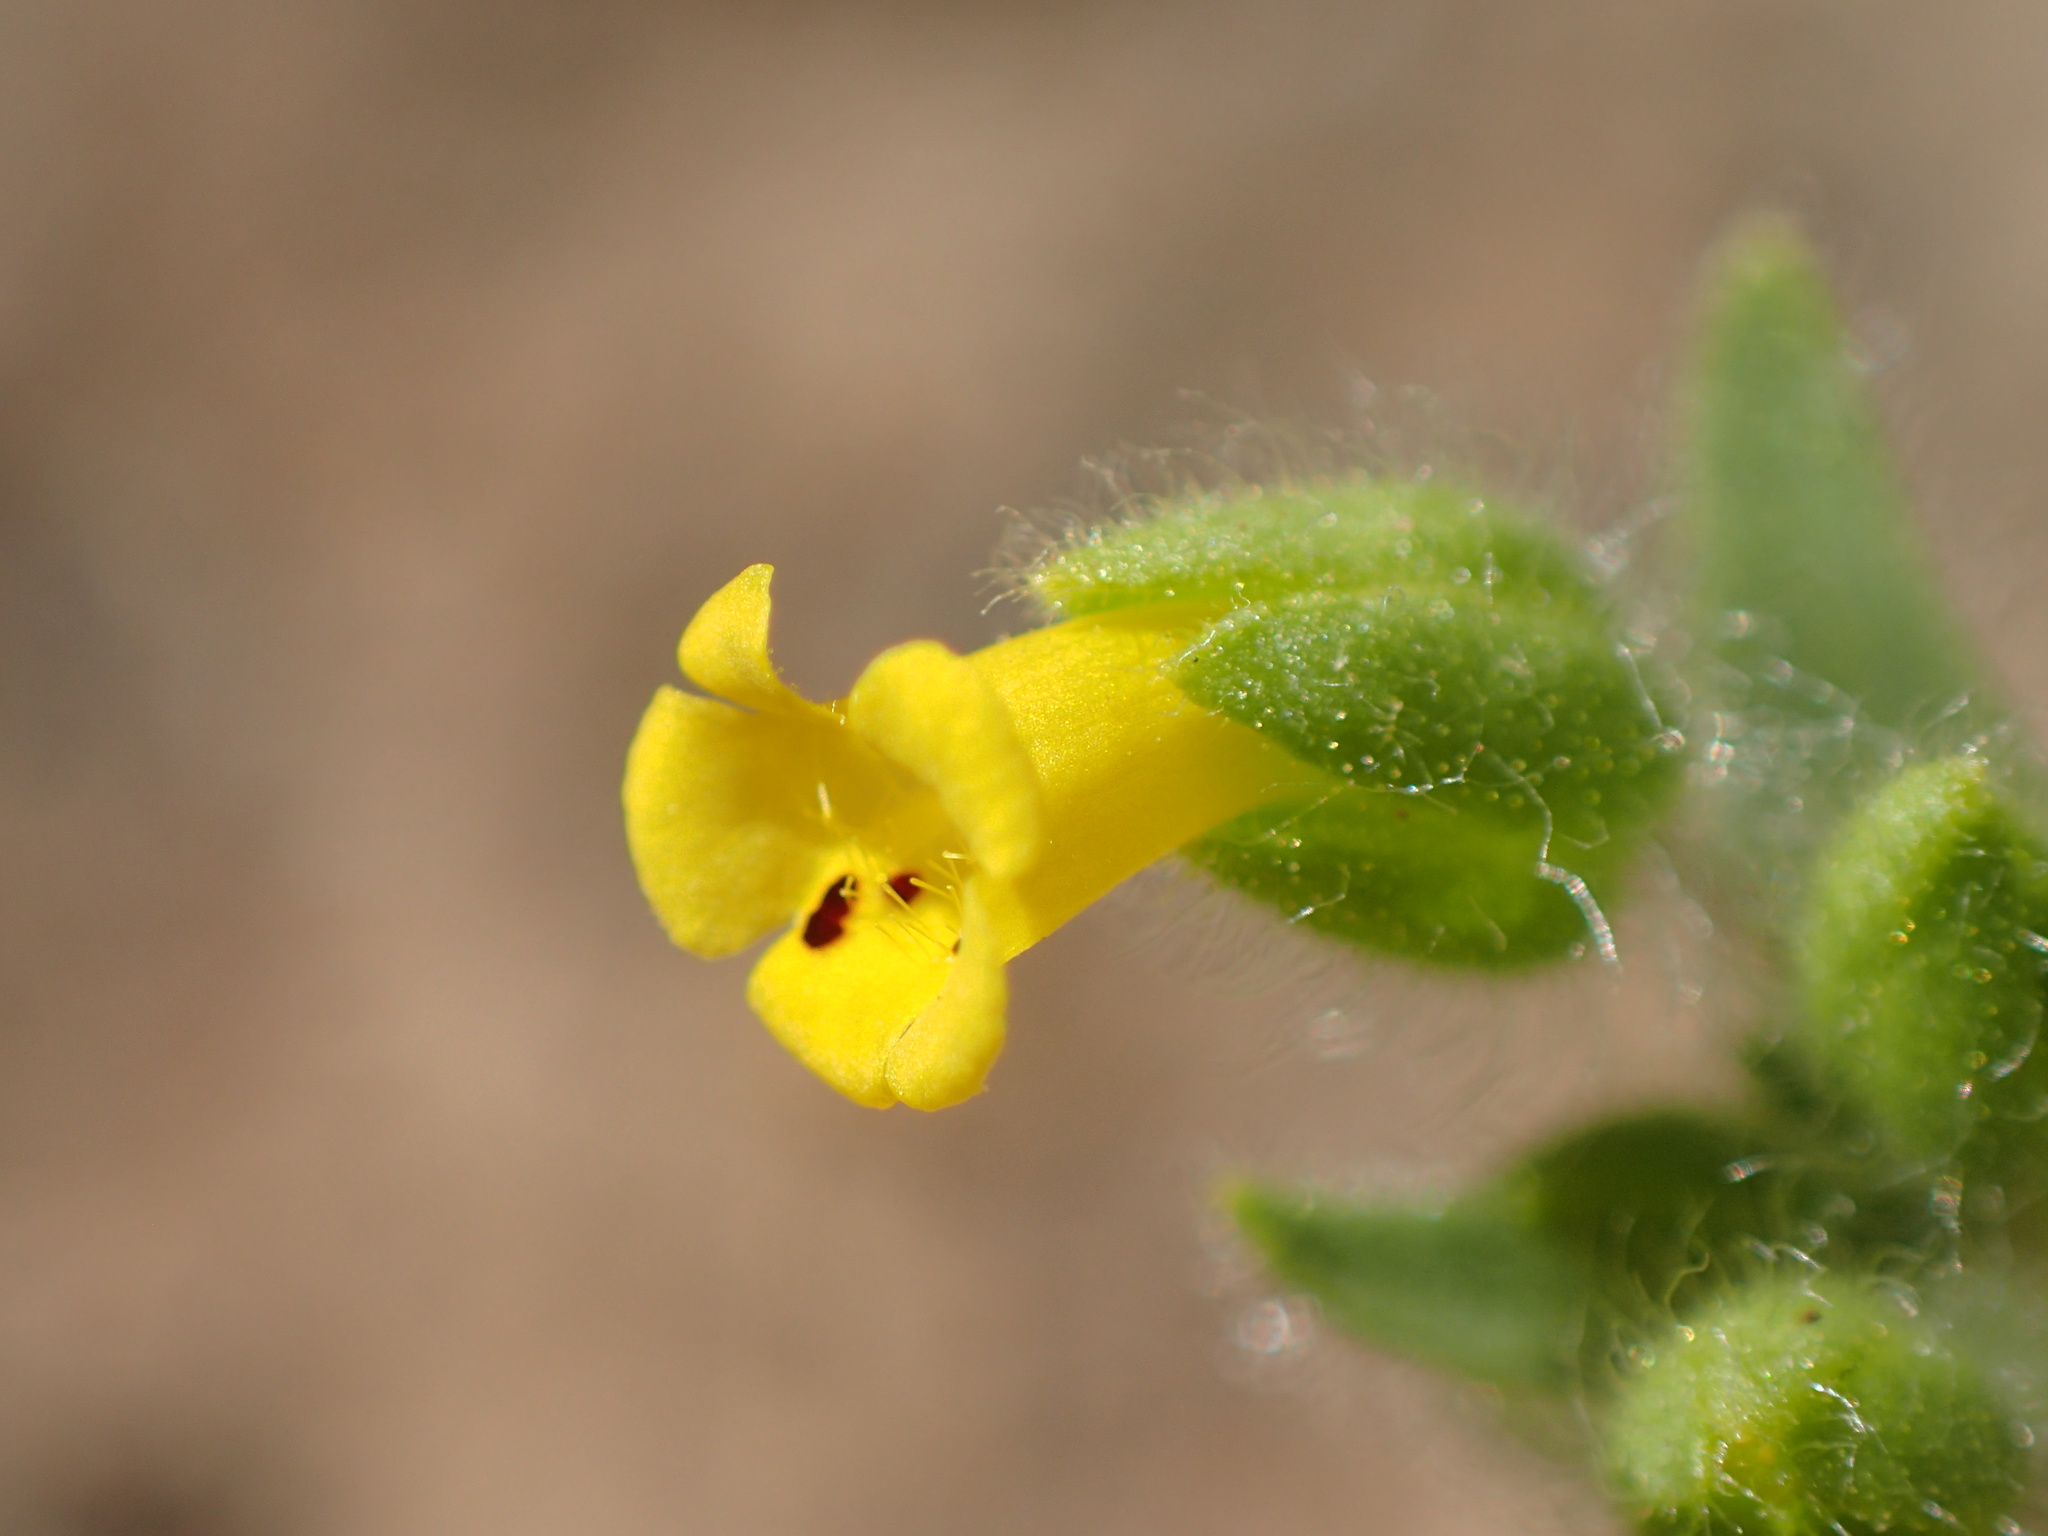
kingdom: Plantae
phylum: Tracheophyta
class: Magnoliopsida
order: Lamiales
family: Phrymaceae
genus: Mimetanthe
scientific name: Mimetanthe pilosa
